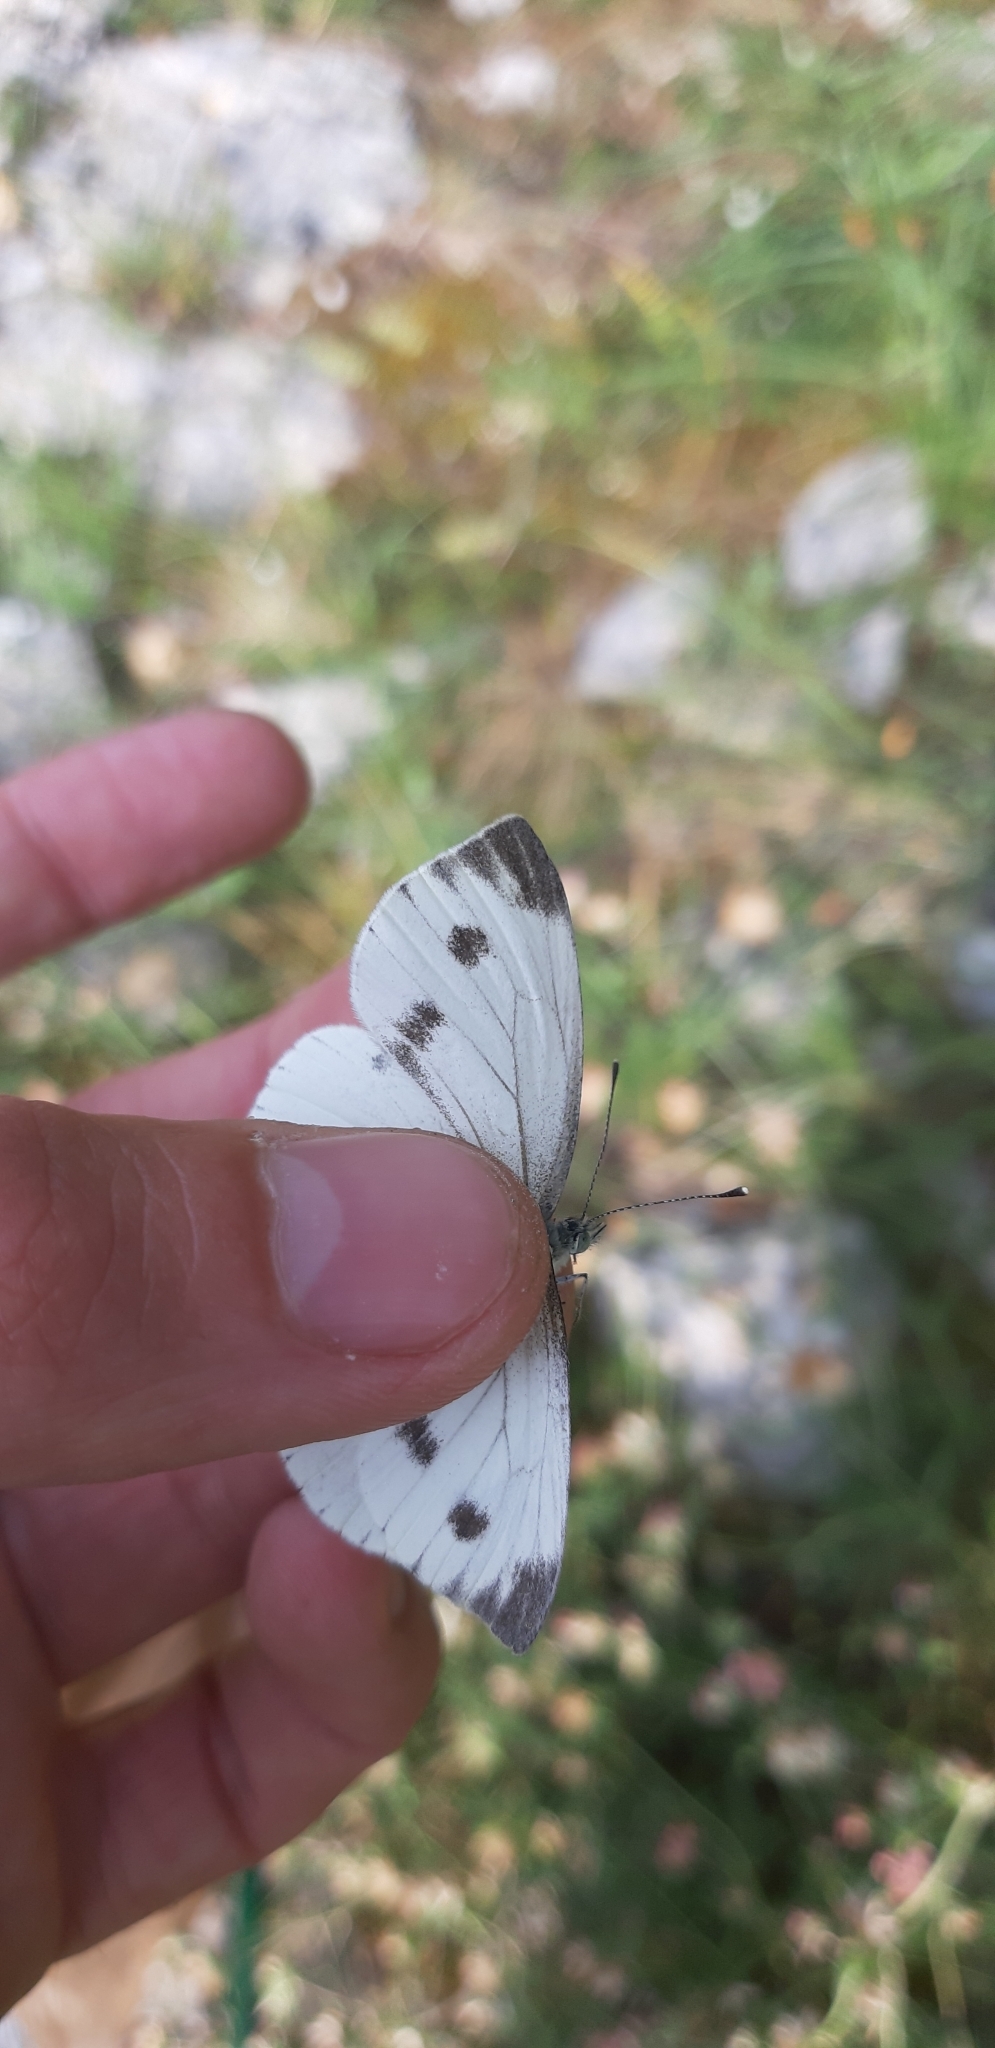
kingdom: Animalia
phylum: Arthropoda
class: Insecta
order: Lepidoptera
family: Pieridae
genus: Pieris
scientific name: Pieris napi
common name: Green-veined white
